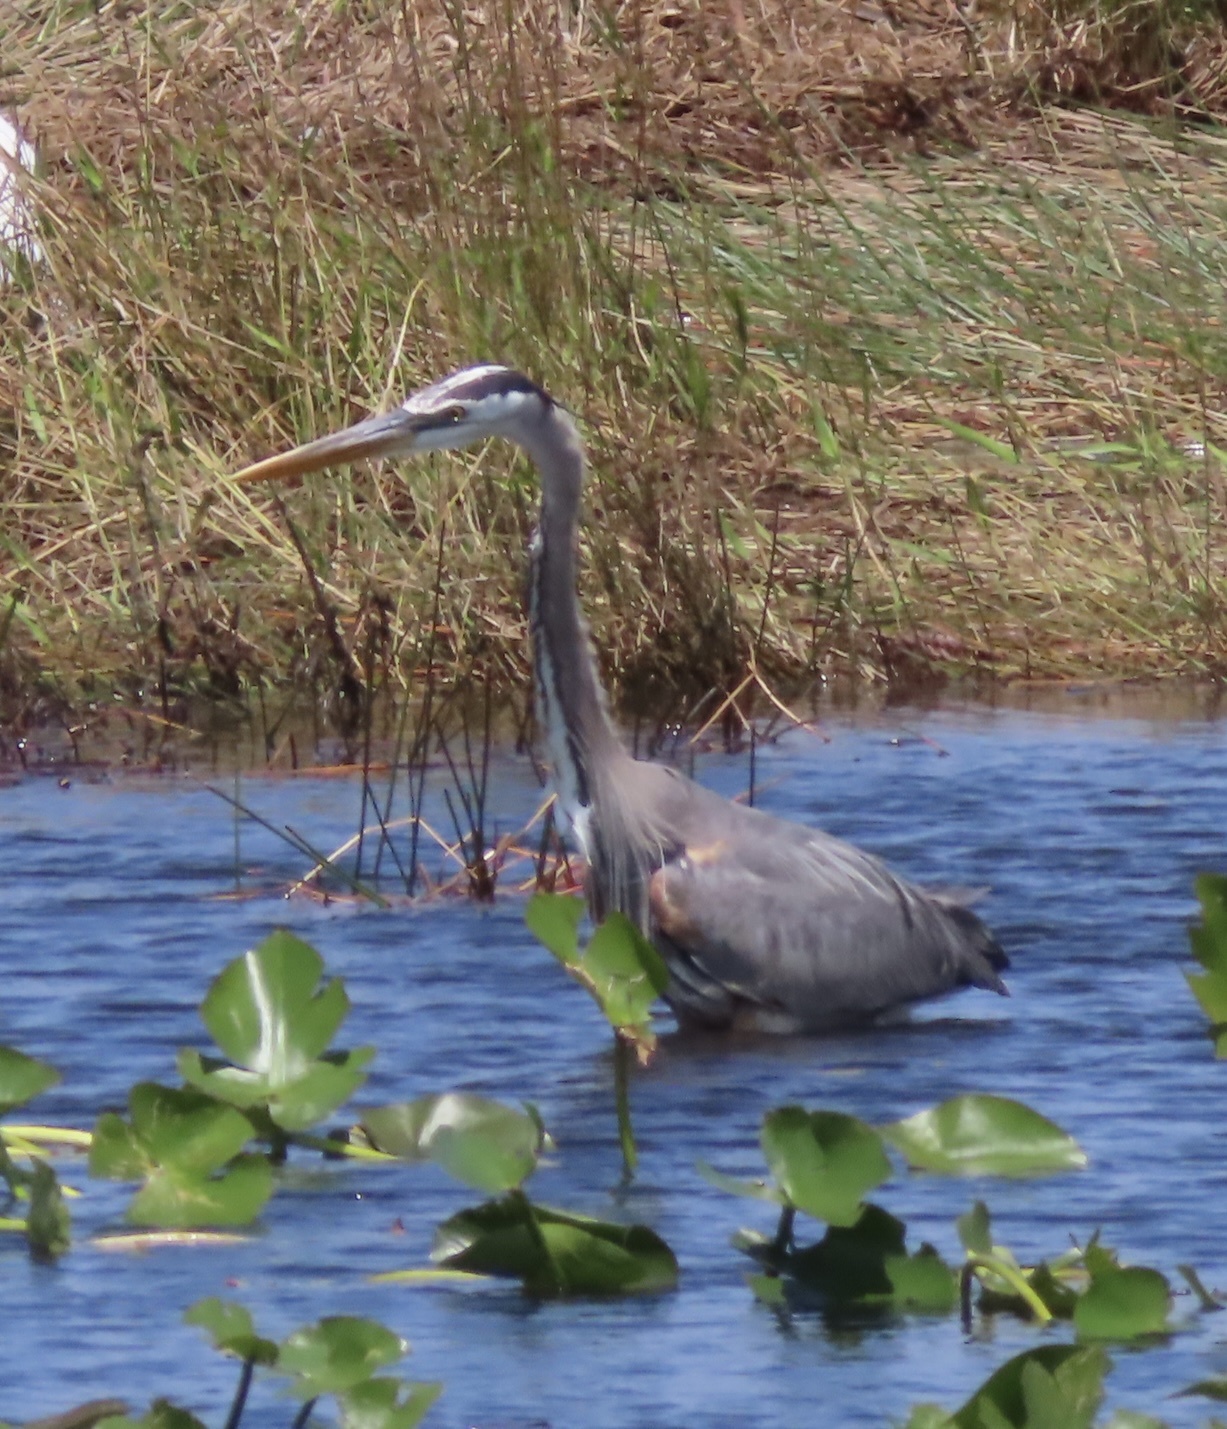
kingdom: Animalia
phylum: Chordata
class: Aves
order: Pelecaniformes
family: Ardeidae
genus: Ardea
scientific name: Ardea herodias
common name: Great blue heron
